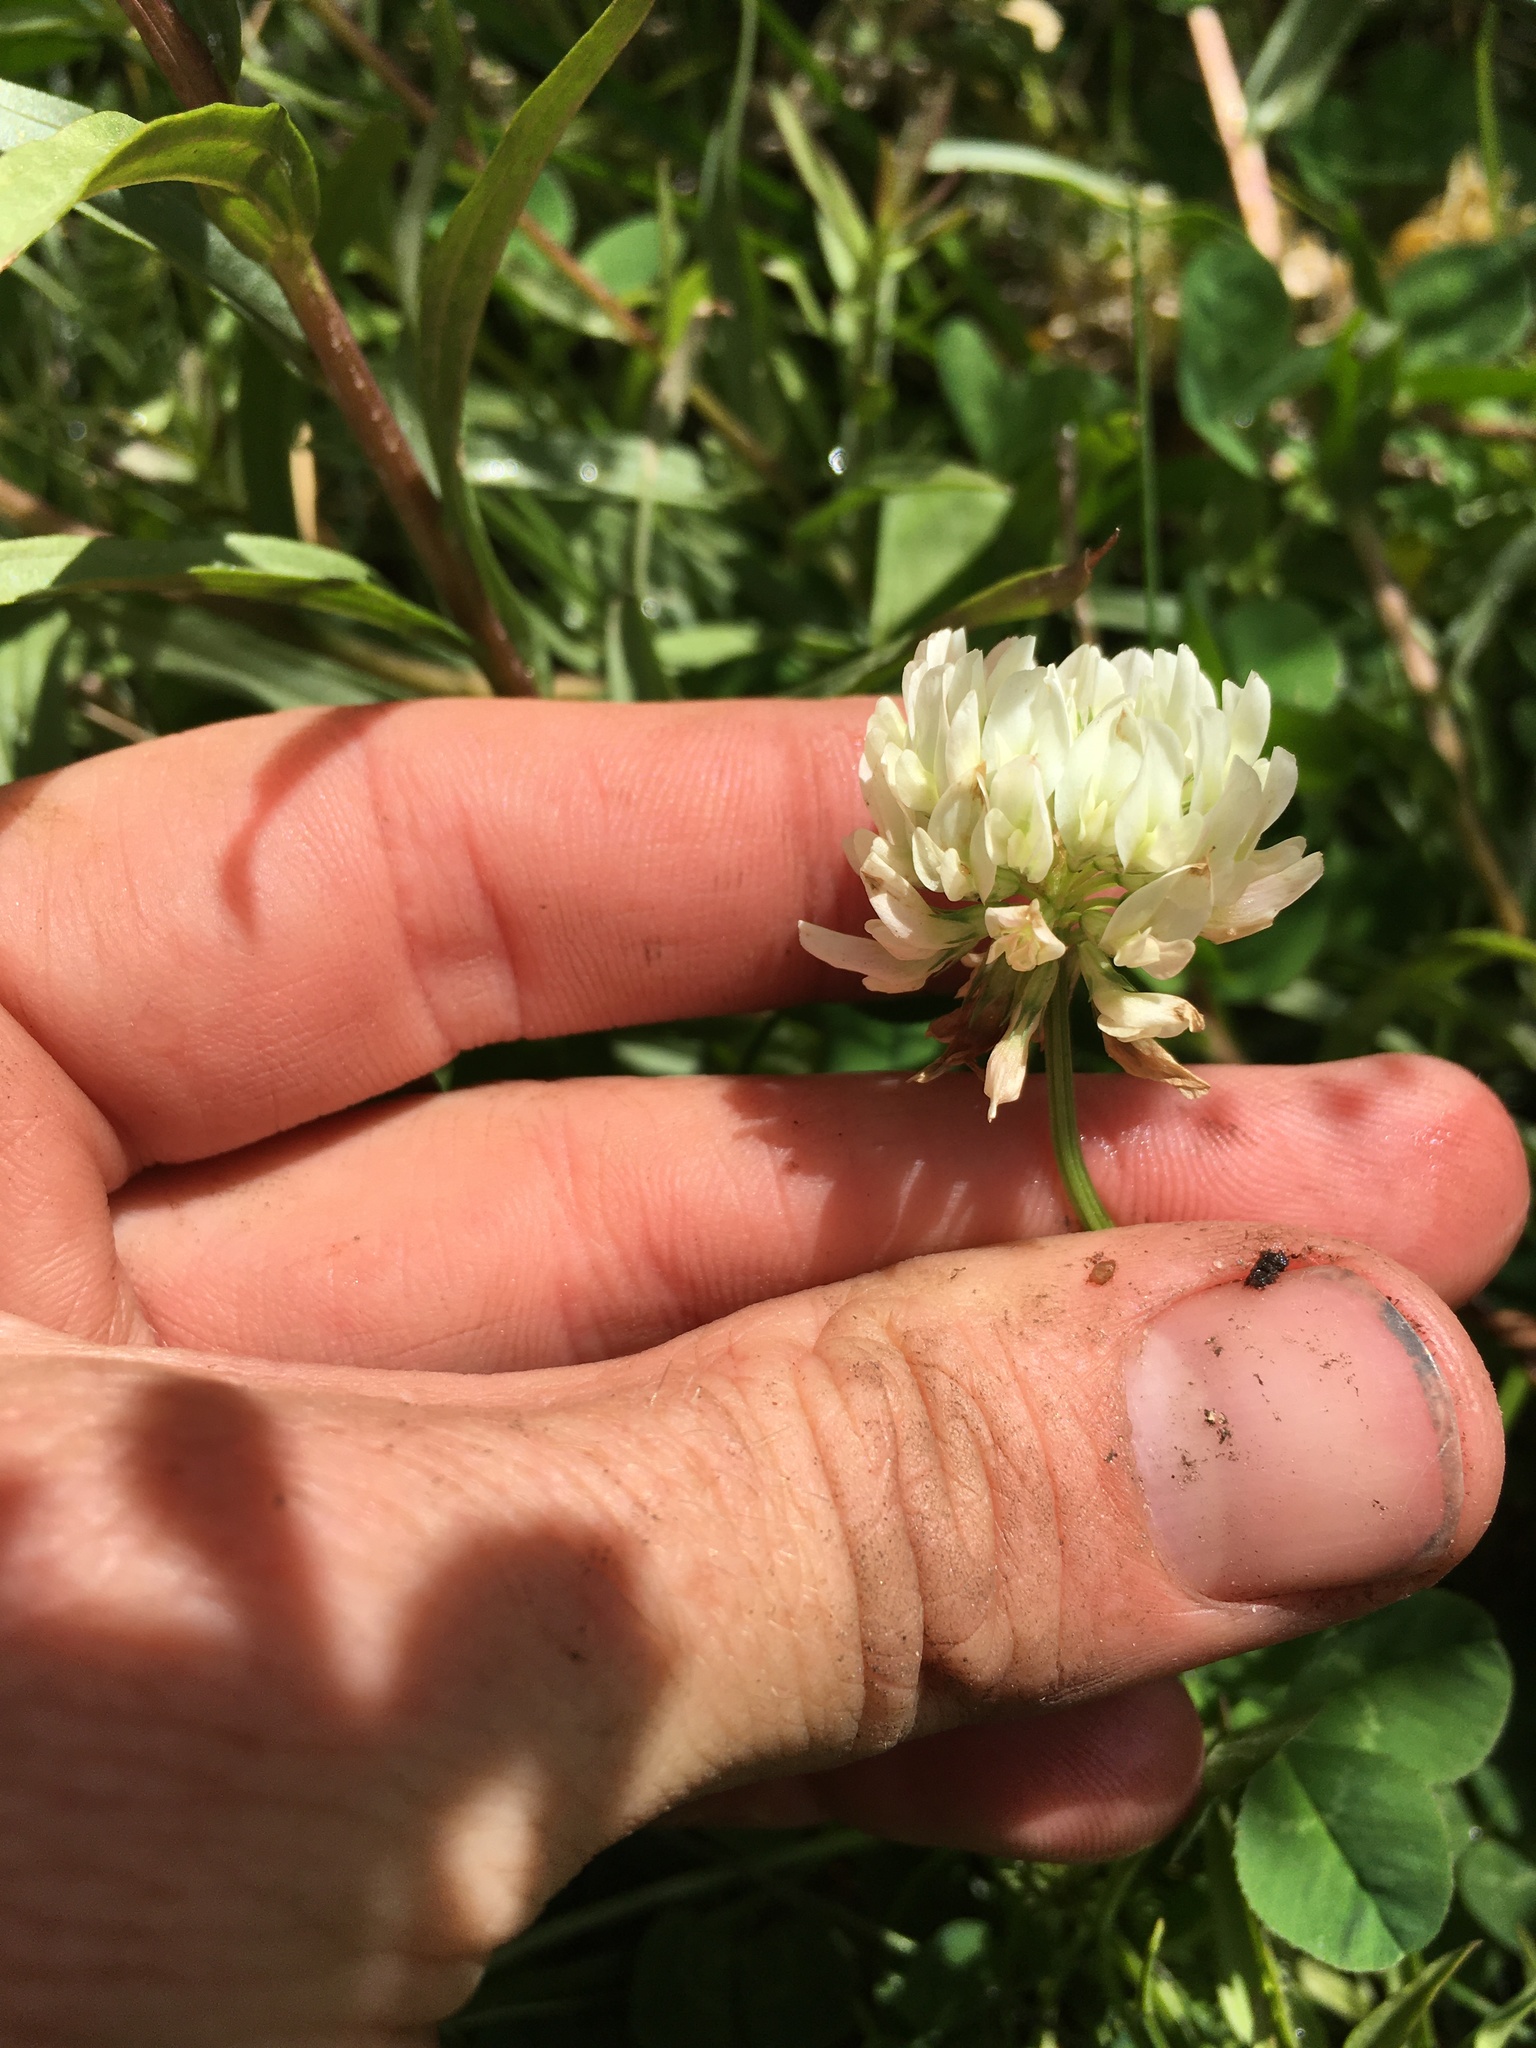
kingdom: Plantae
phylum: Tracheophyta
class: Magnoliopsida
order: Fabales
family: Fabaceae
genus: Trifolium
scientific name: Trifolium repens
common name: White clover
